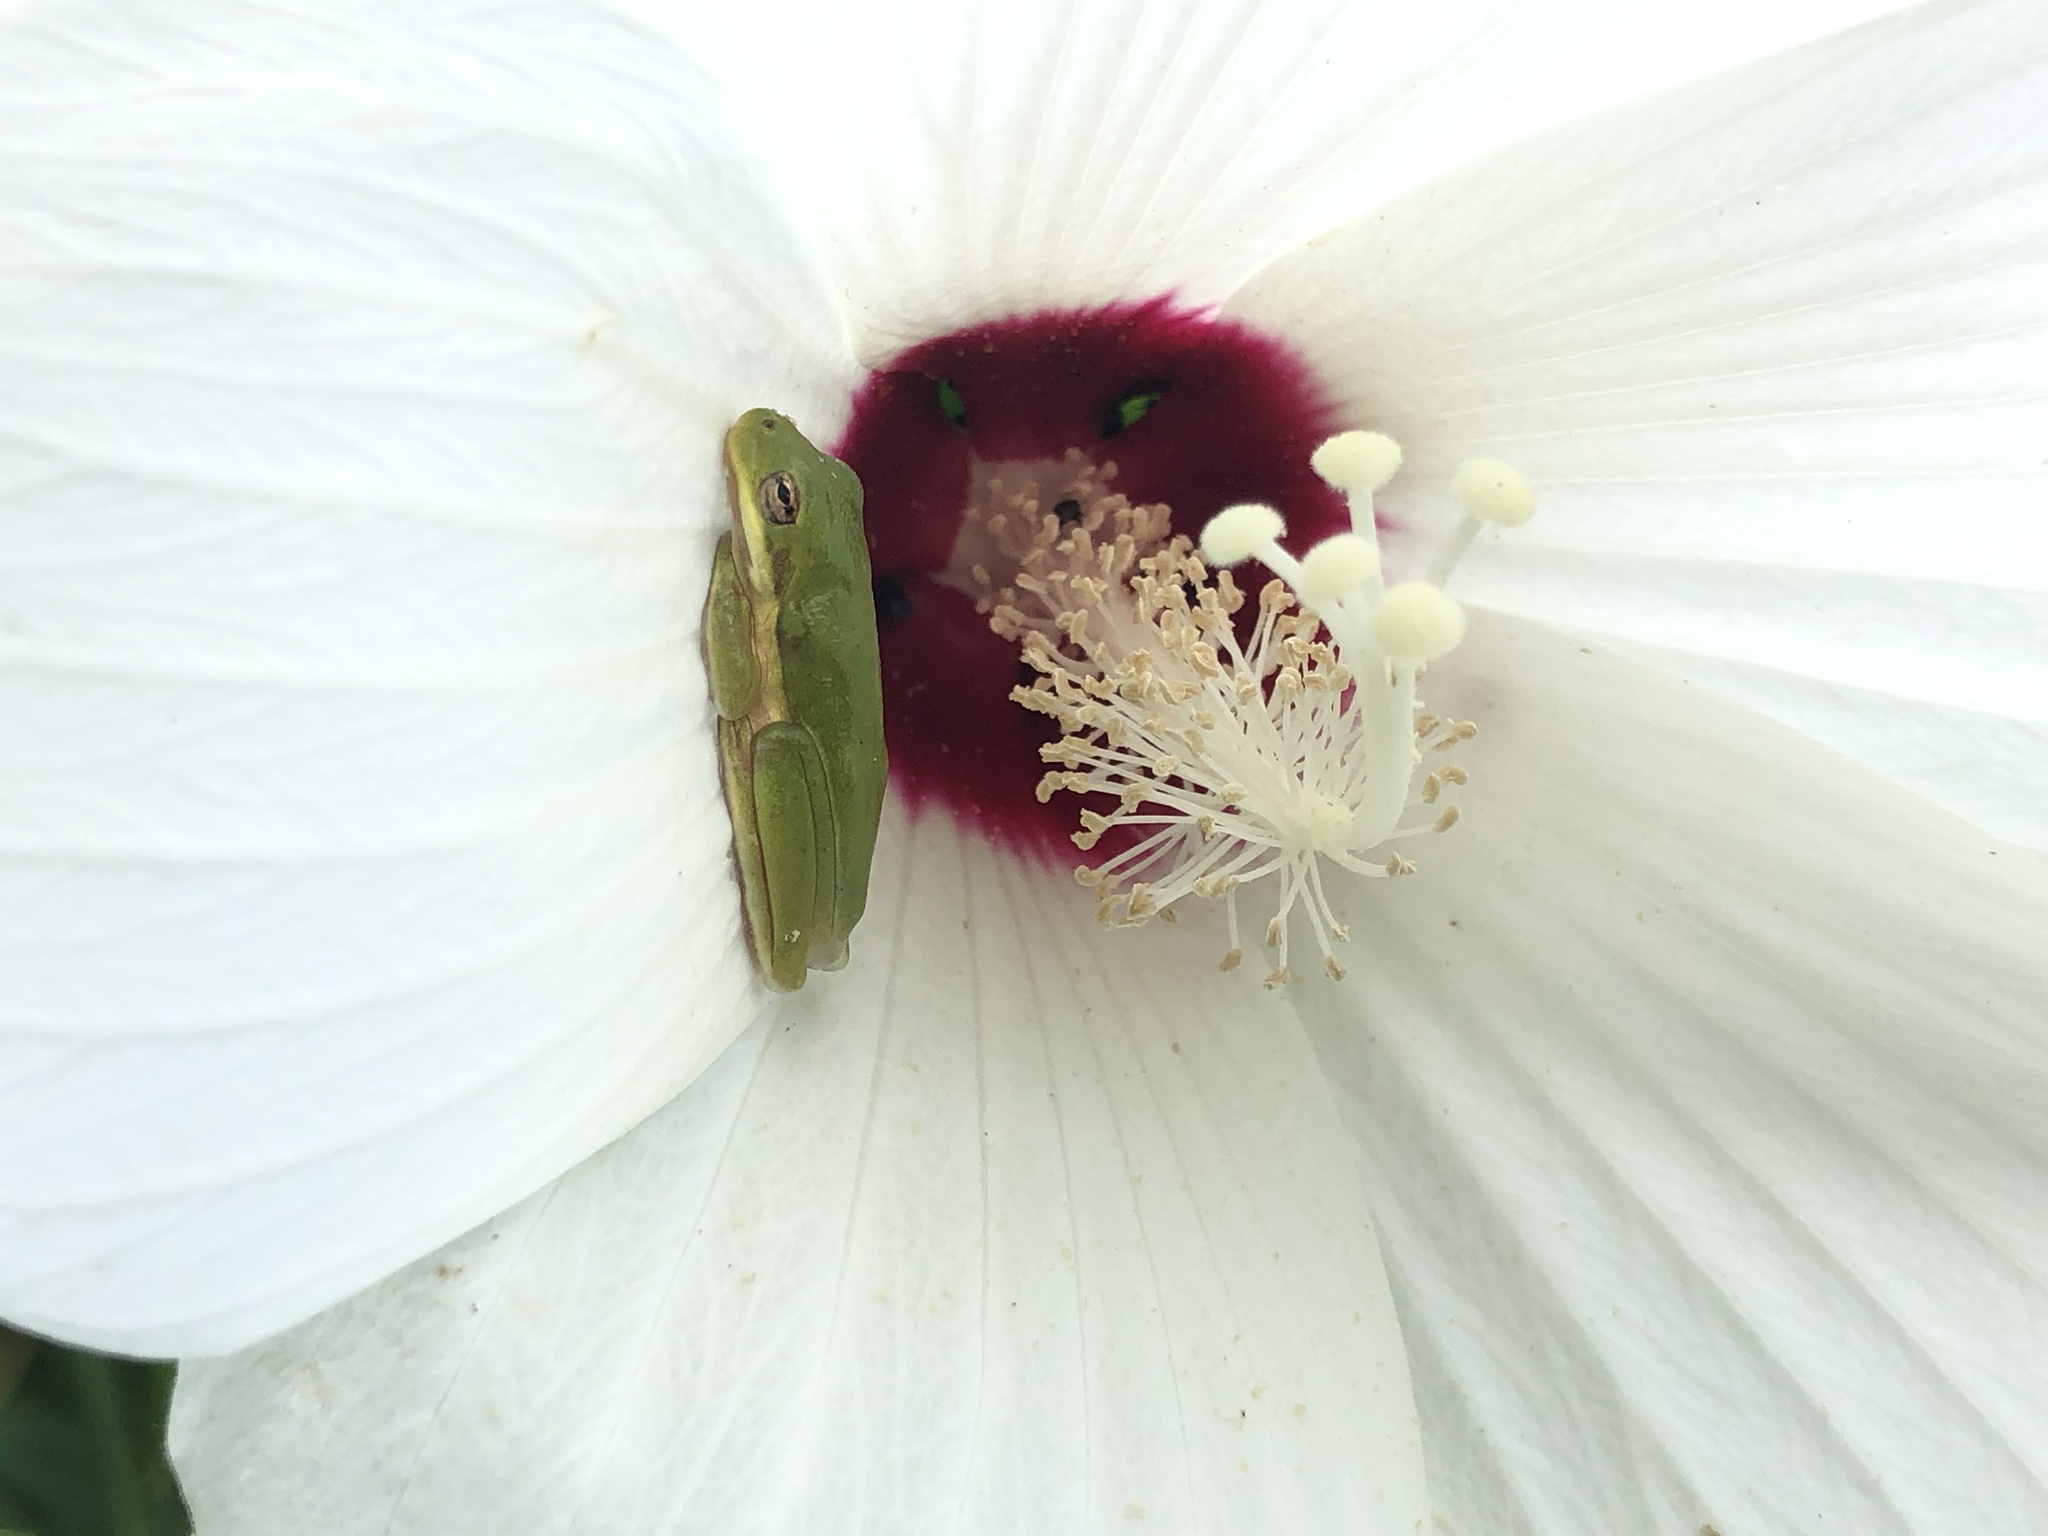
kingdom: Animalia
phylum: Chordata
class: Amphibia
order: Anura
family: Hylidae
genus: Dryophytes
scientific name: Dryophytes cinereus
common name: Green treefrog
